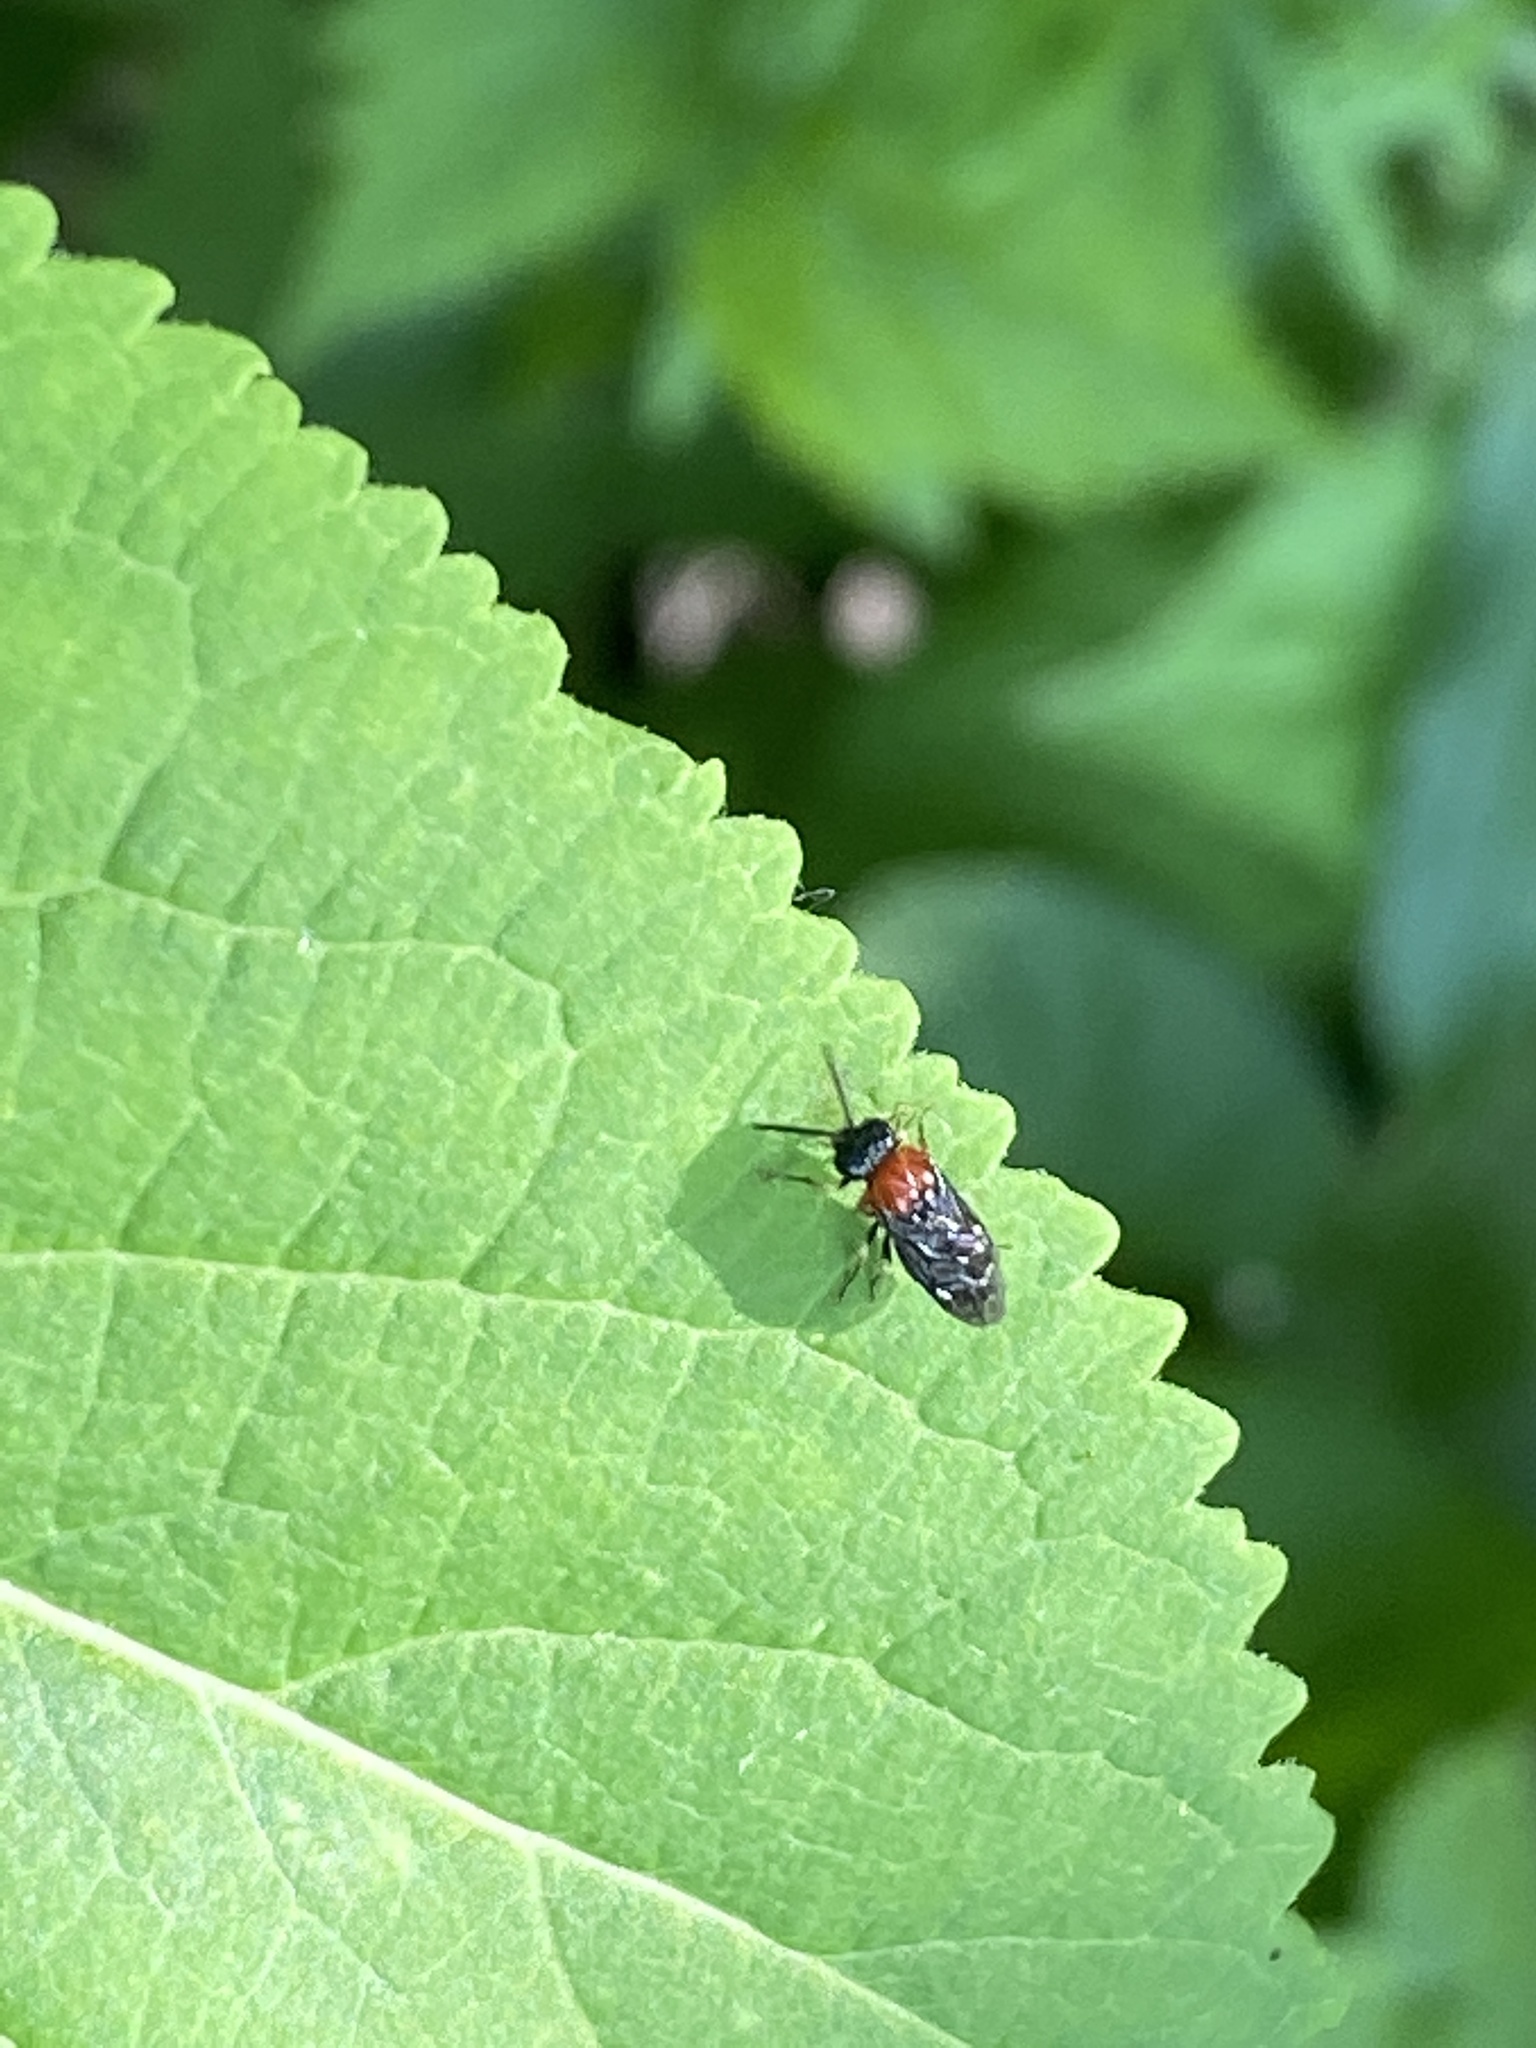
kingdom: Animalia
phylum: Arthropoda
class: Insecta
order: Hymenoptera
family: Tenthredinidae
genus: Eutomostethus
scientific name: Eutomostethus ephippium
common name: Tenthredid wasp
